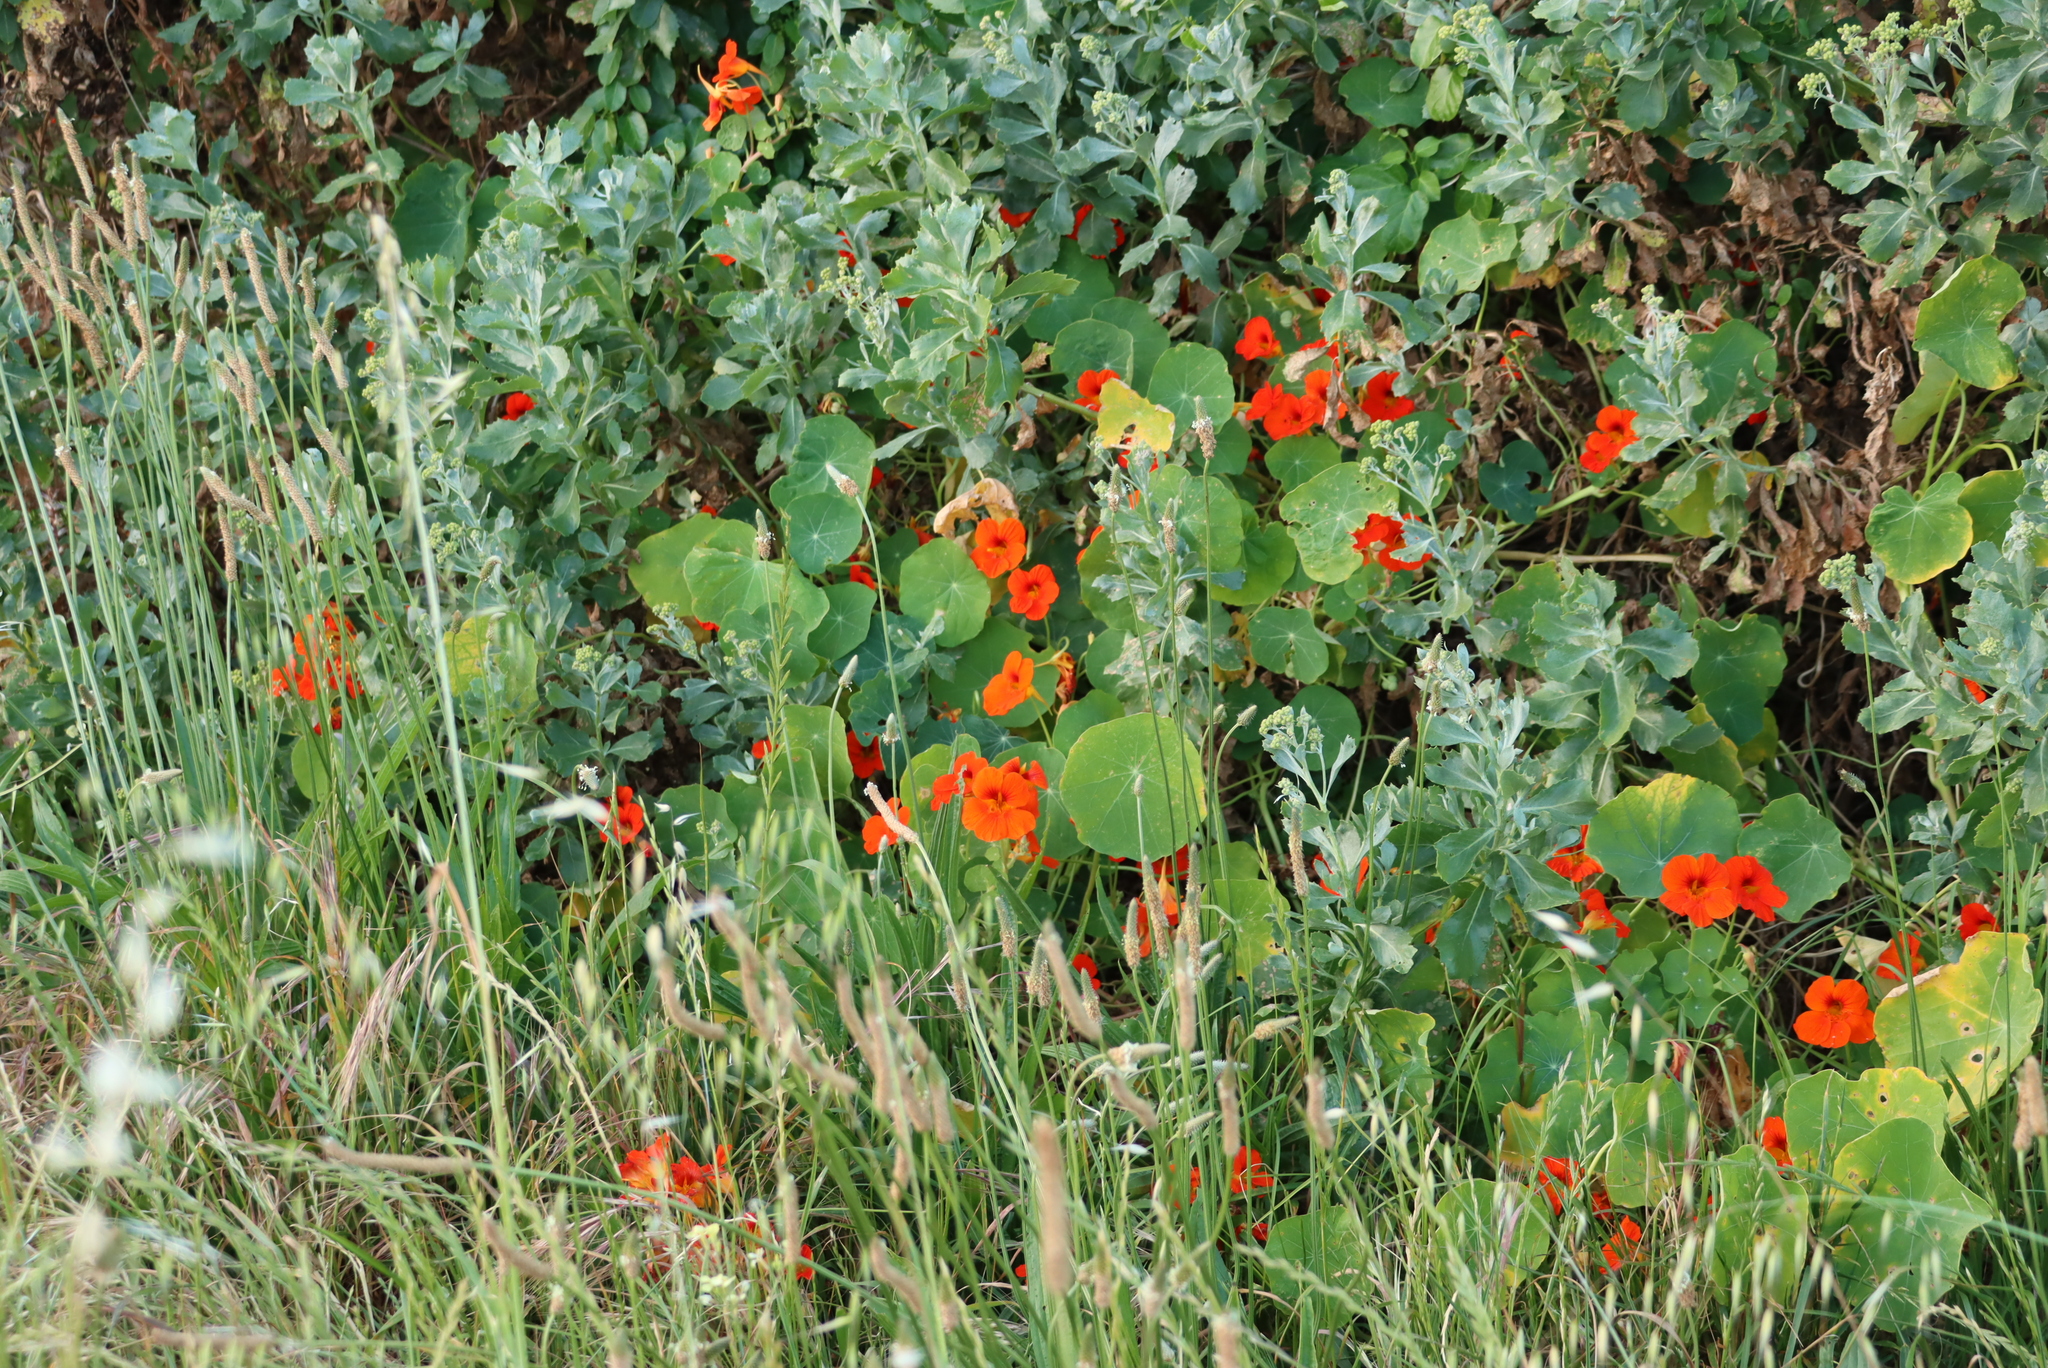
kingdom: Plantae
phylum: Tracheophyta
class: Magnoliopsida
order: Brassicales
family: Tropaeolaceae
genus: Tropaeolum
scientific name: Tropaeolum majus
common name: Nasturtium
